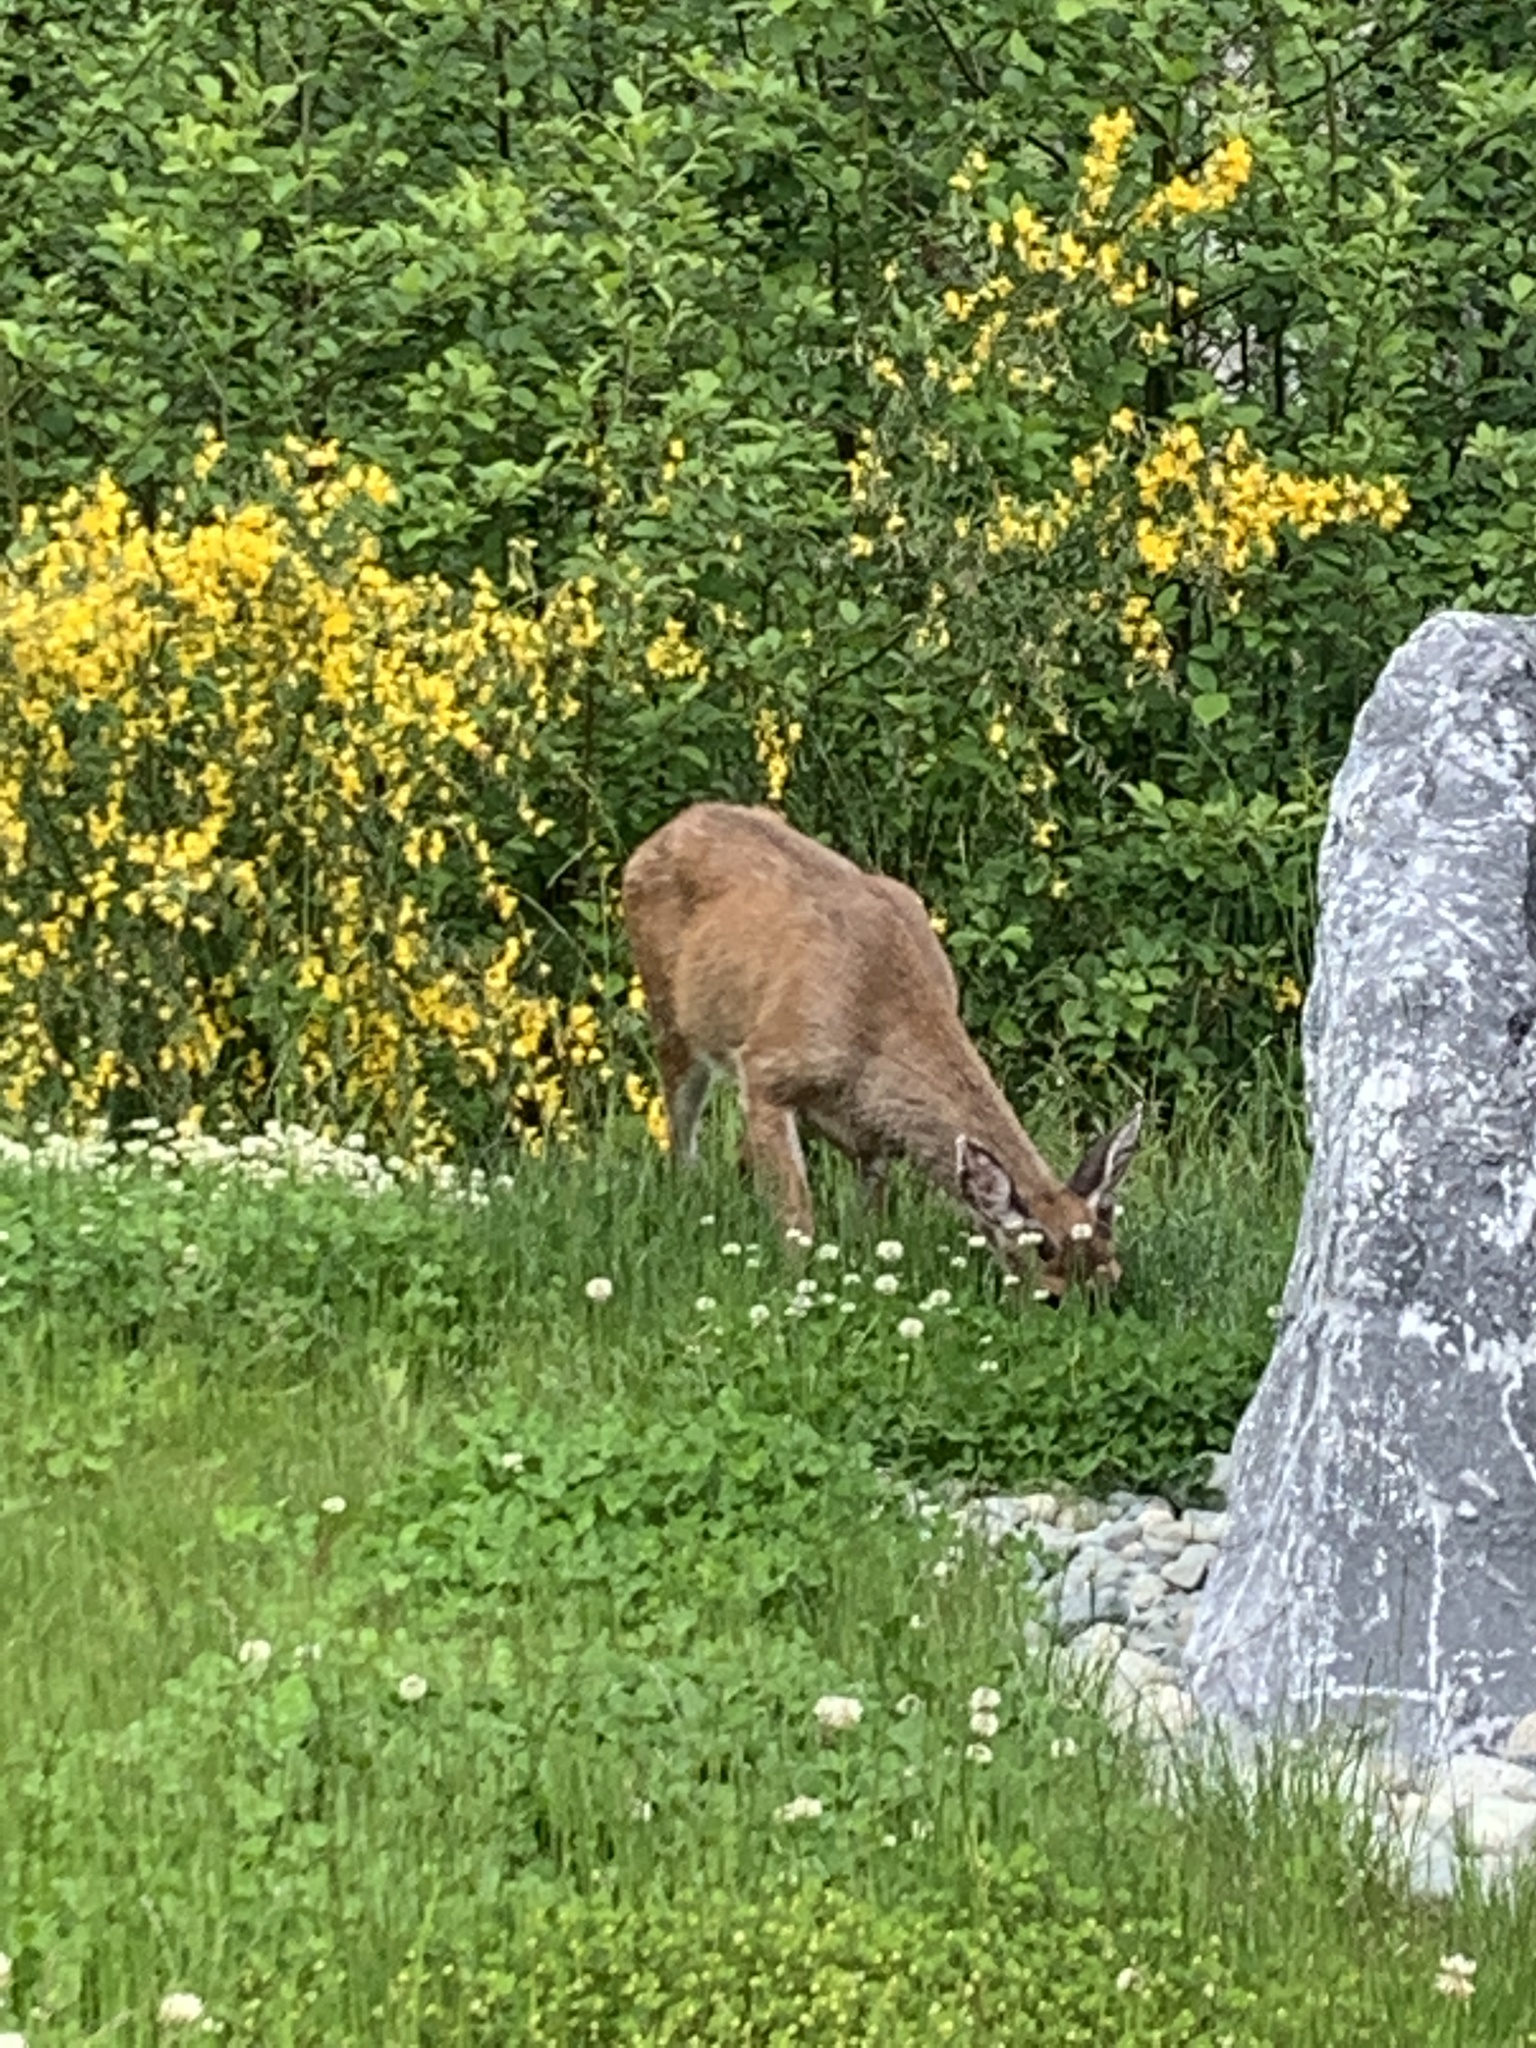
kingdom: Animalia
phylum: Chordata
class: Mammalia
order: Artiodactyla
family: Cervidae
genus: Odocoileus
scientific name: Odocoileus hemionus
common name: Mule deer
